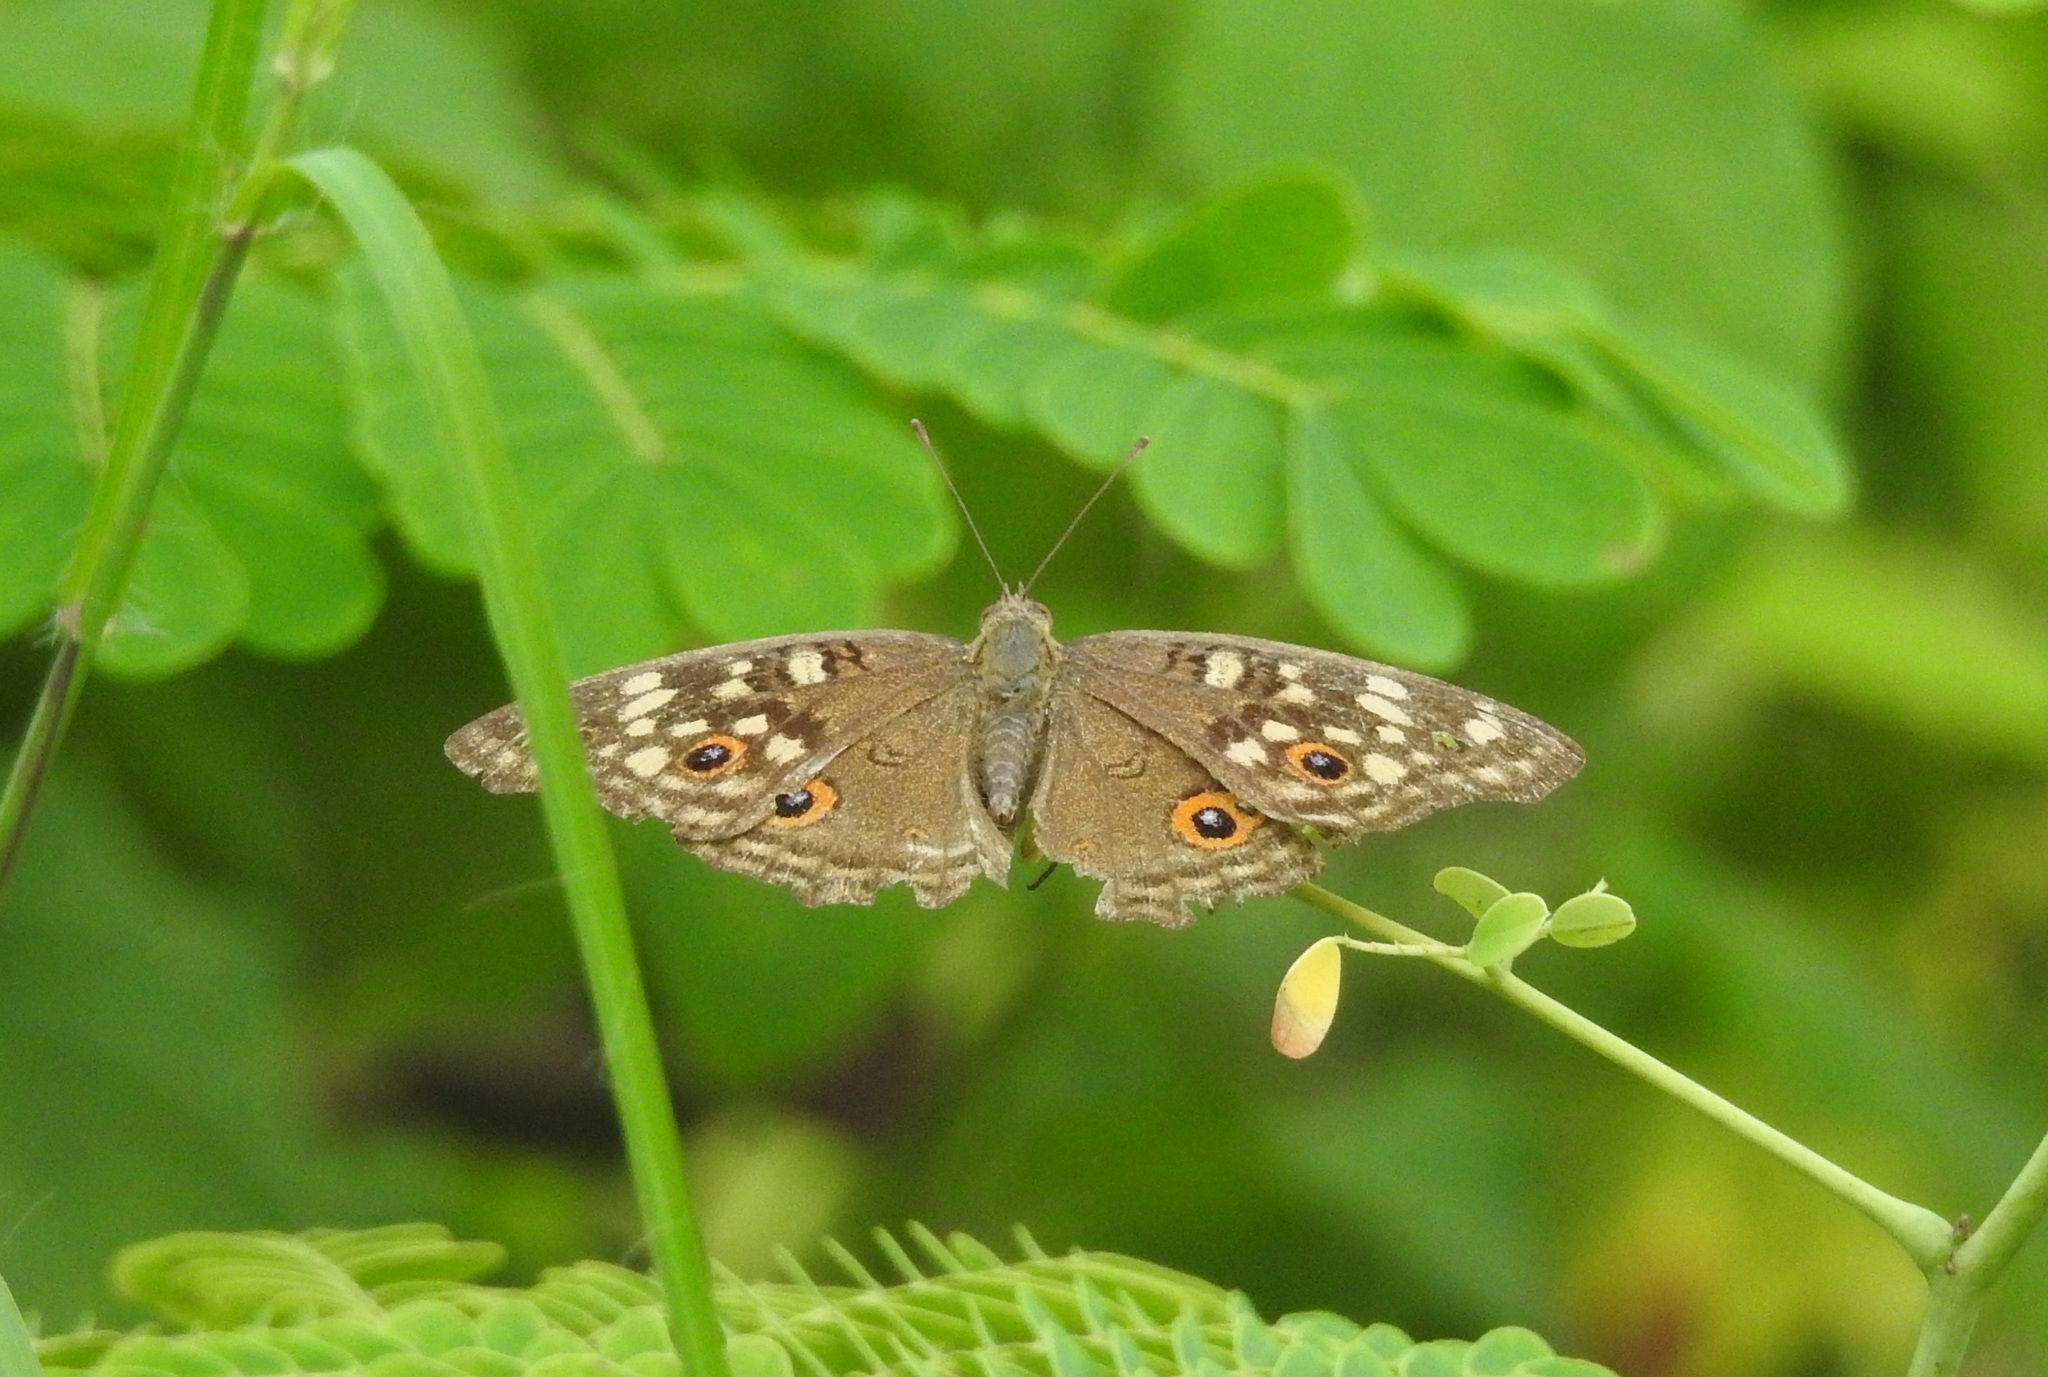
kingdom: Animalia
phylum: Arthropoda
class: Insecta
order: Lepidoptera
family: Nymphalidae
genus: Junonia
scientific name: Junonia lemonias
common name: Lemon pansy
